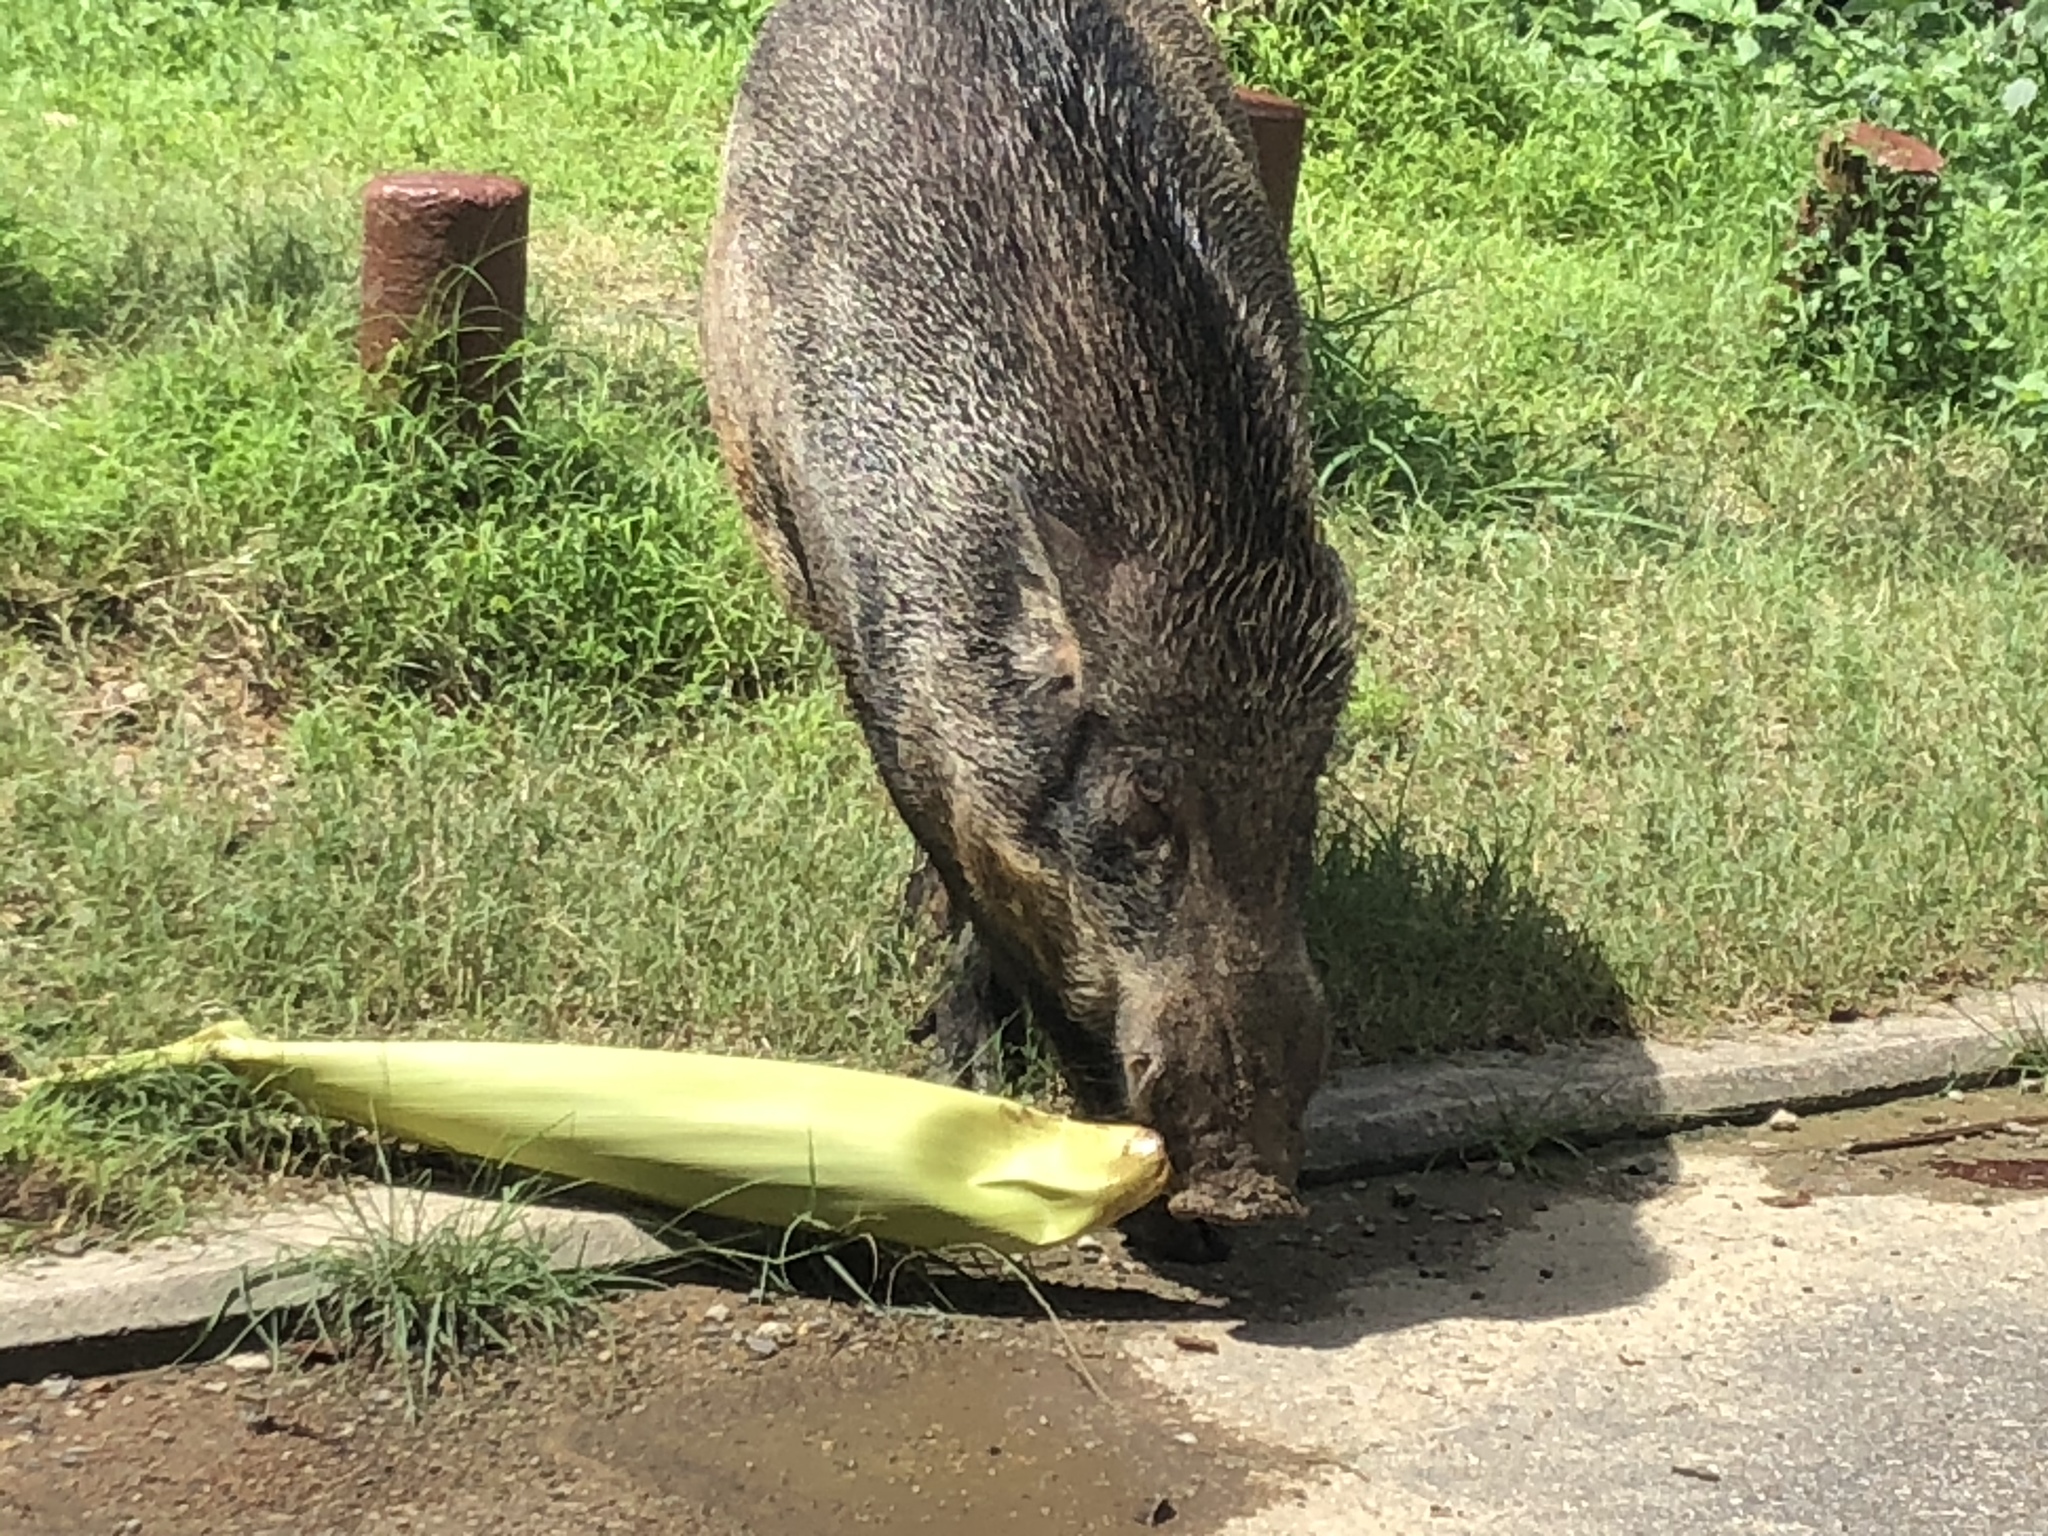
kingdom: Animalia
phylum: Chordata
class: Mammalia
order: Artiodactyla
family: Suidae
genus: Sus
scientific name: Sus scrofa
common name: Wild boar
